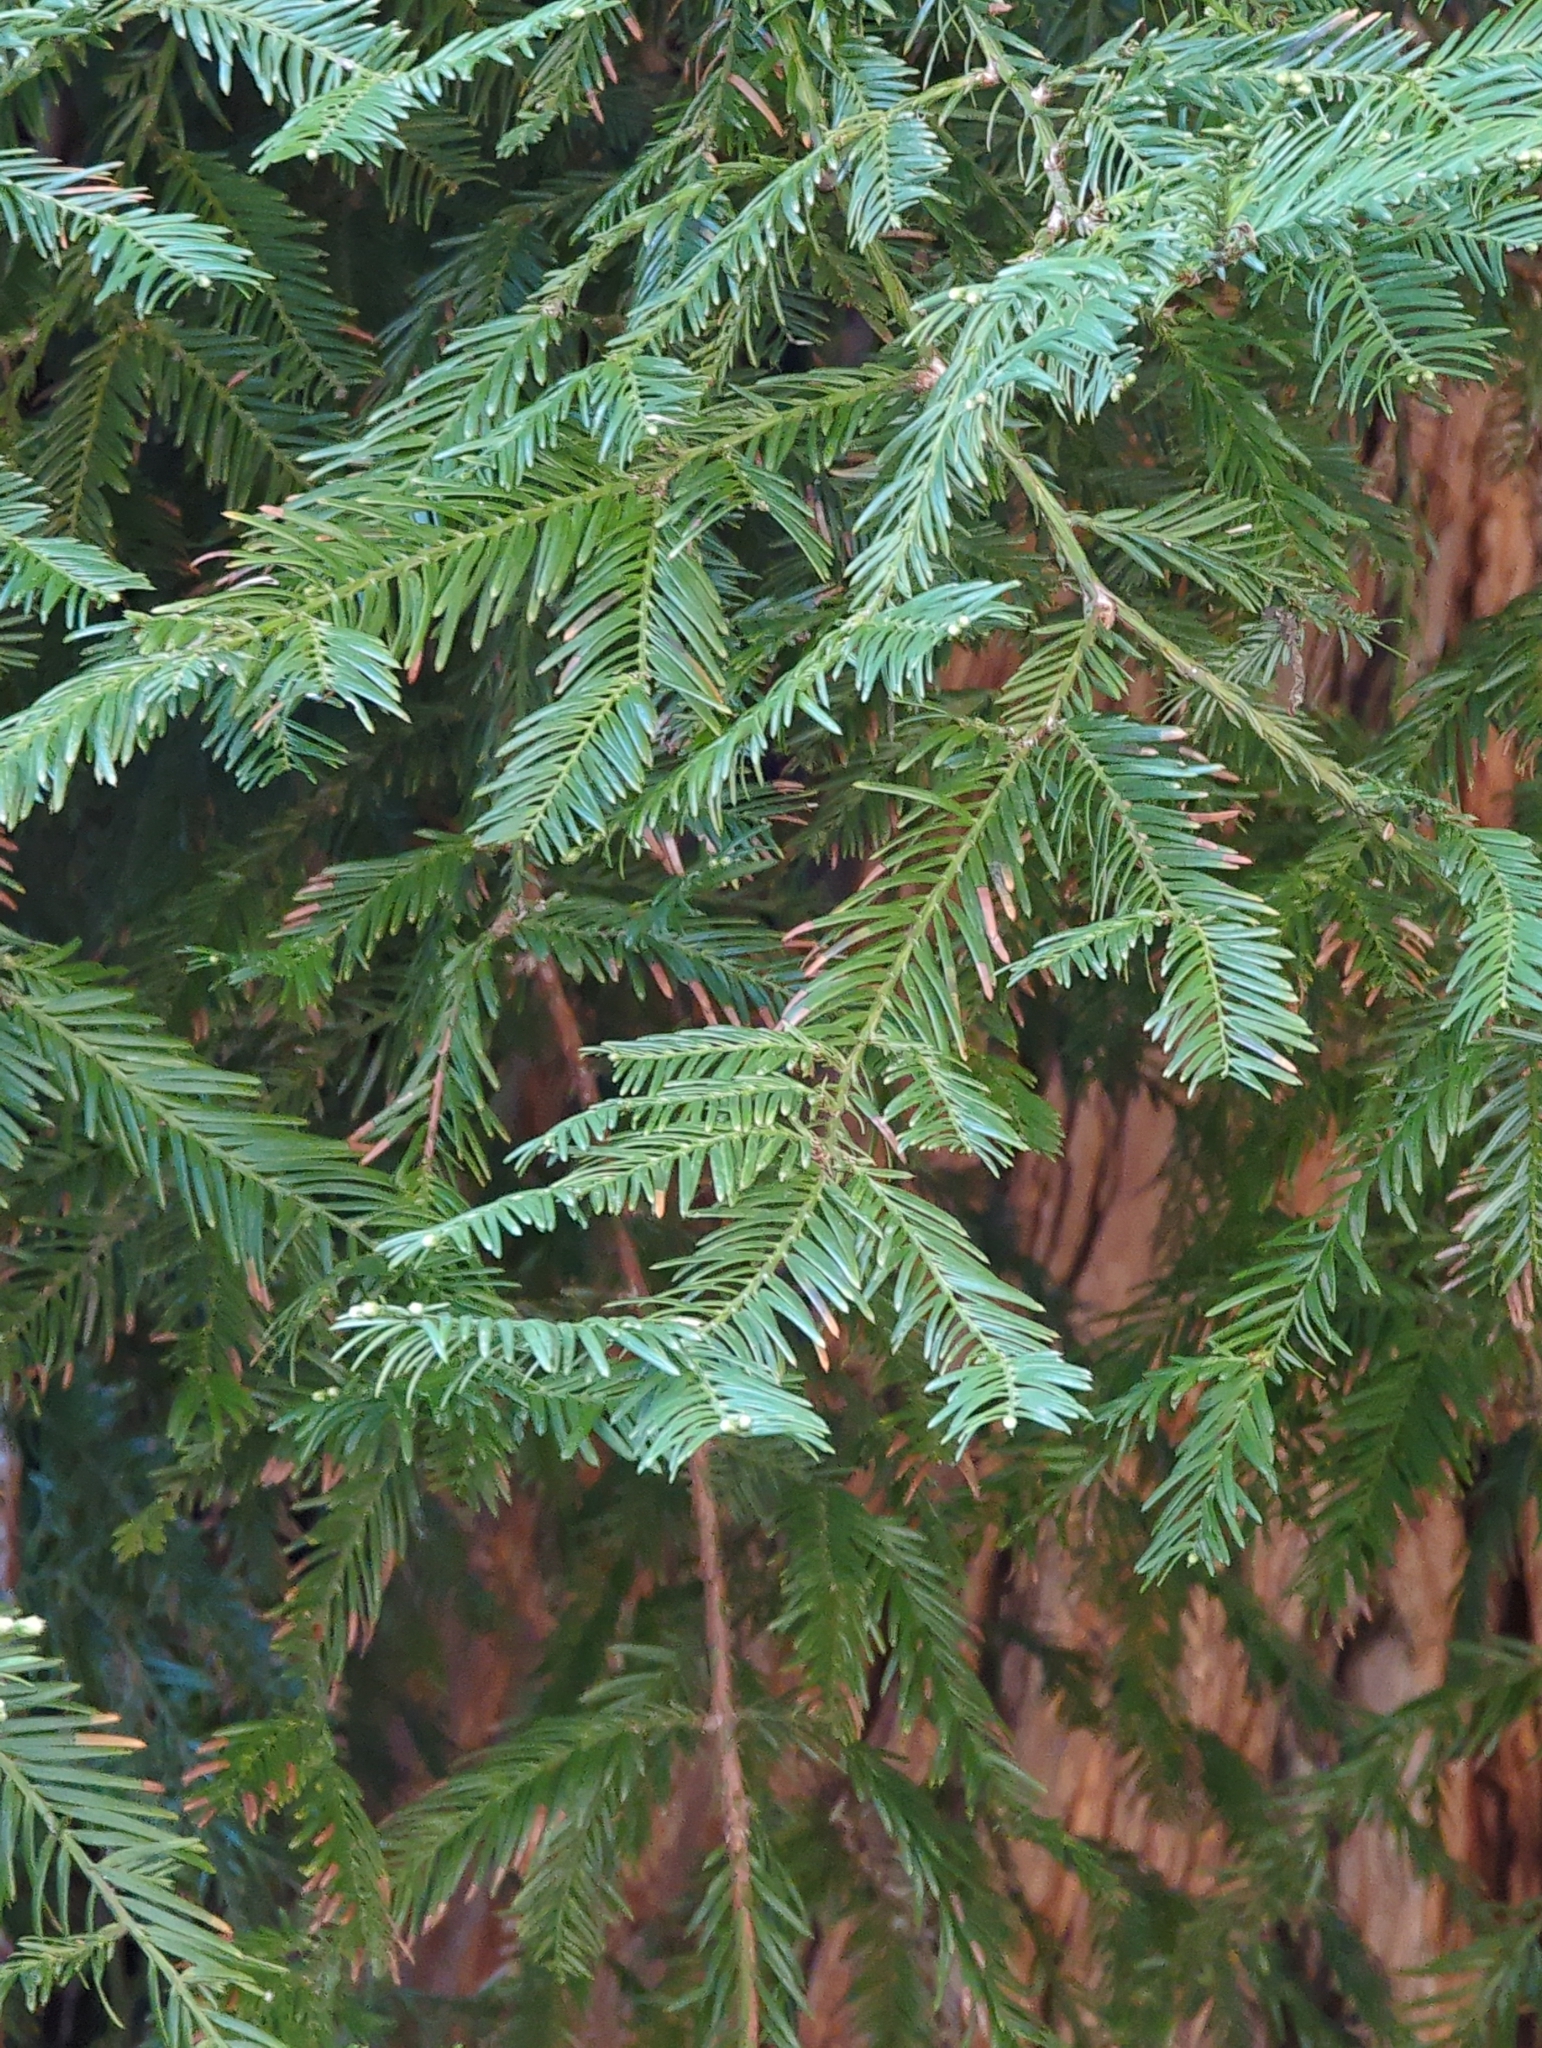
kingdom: Plantae
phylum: Tracheophyta
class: Pinopsida
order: Pinales
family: Cupressaceae
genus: Sequoia
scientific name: Sequoia sempervirens
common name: Coast redwood
